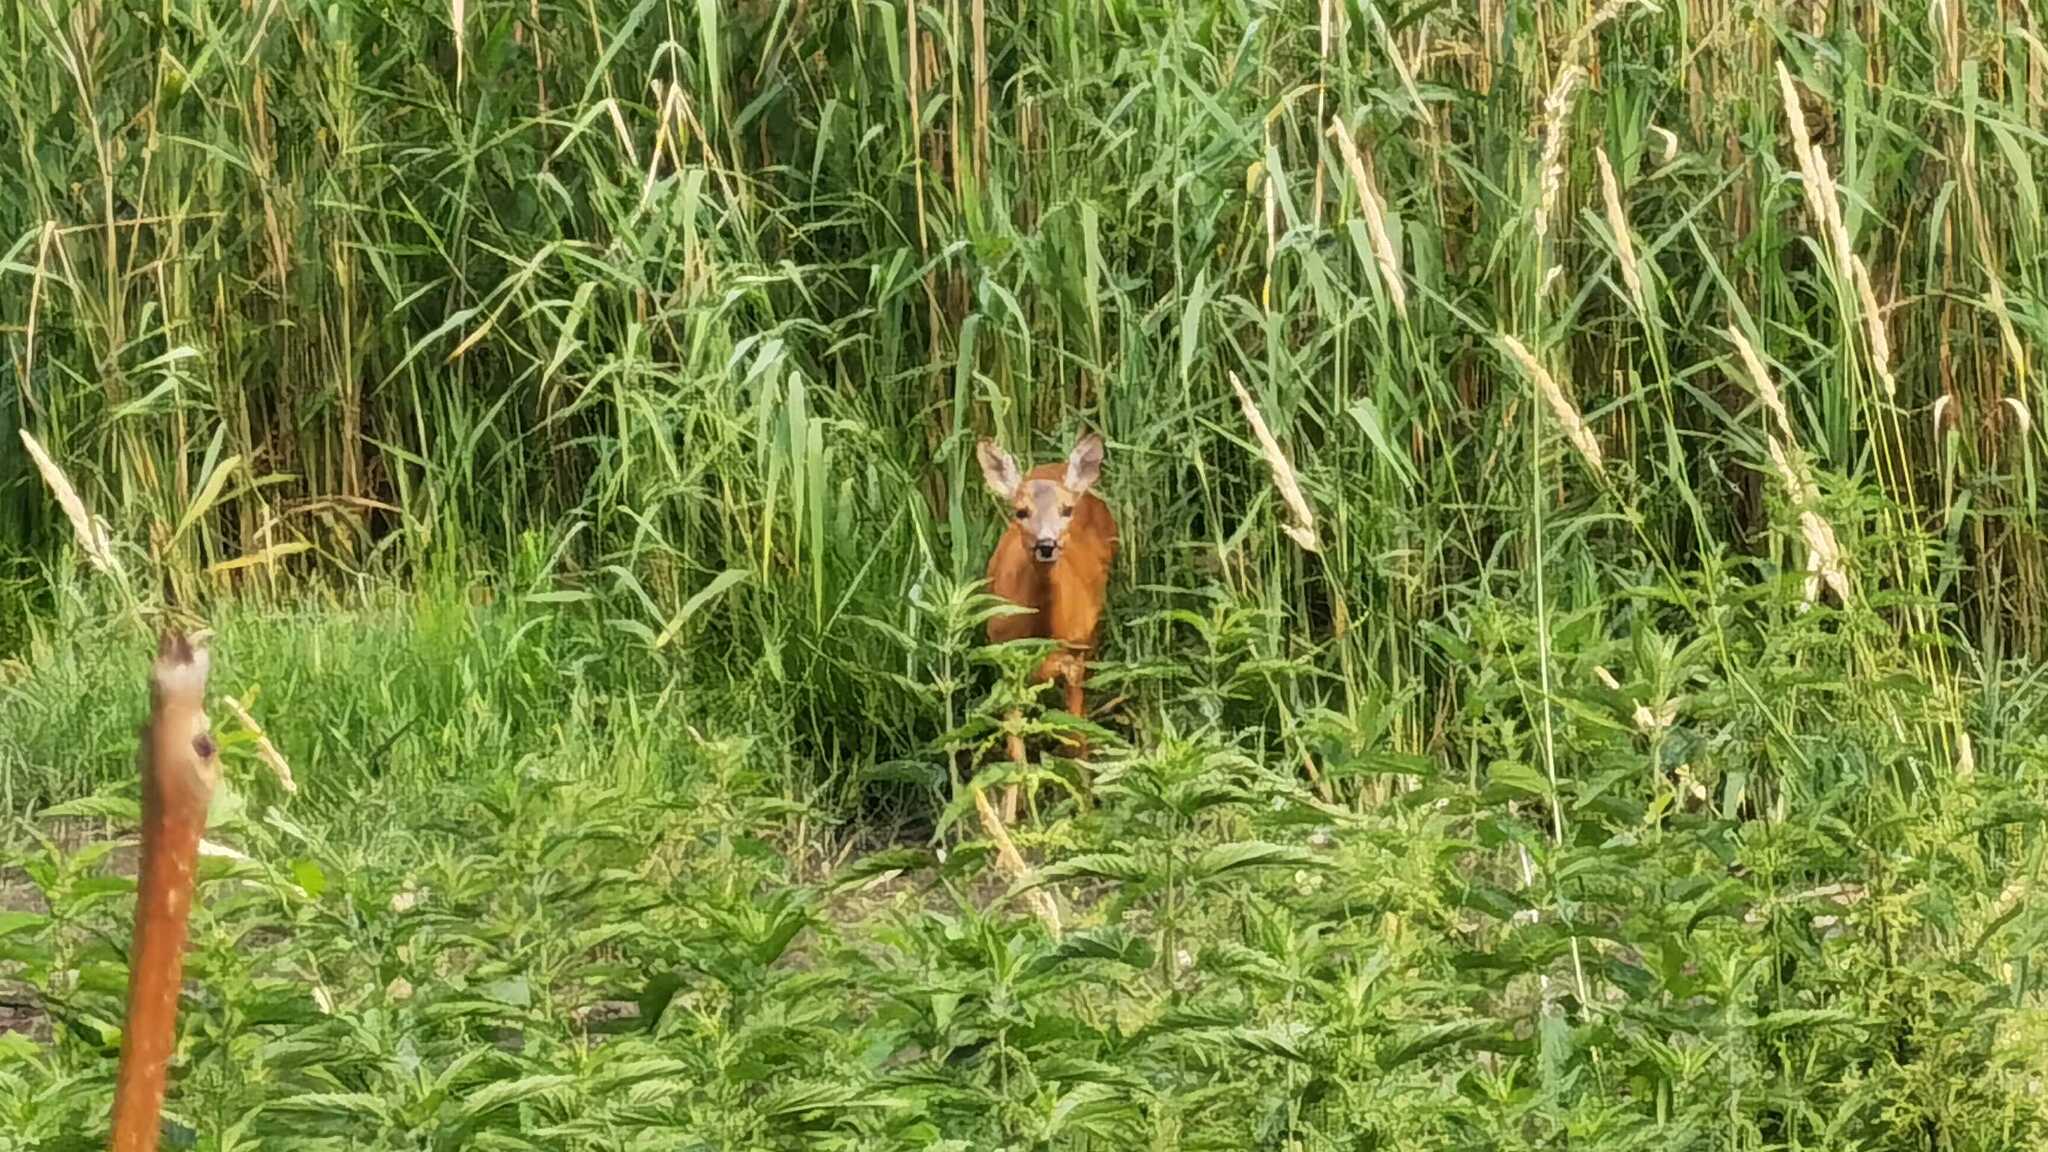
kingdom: Animalia
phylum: Chordata
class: Mammalia
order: Artiodactyla
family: Cervidae
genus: Capreolus
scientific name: Capreolus capreolus
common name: Western roe deer
